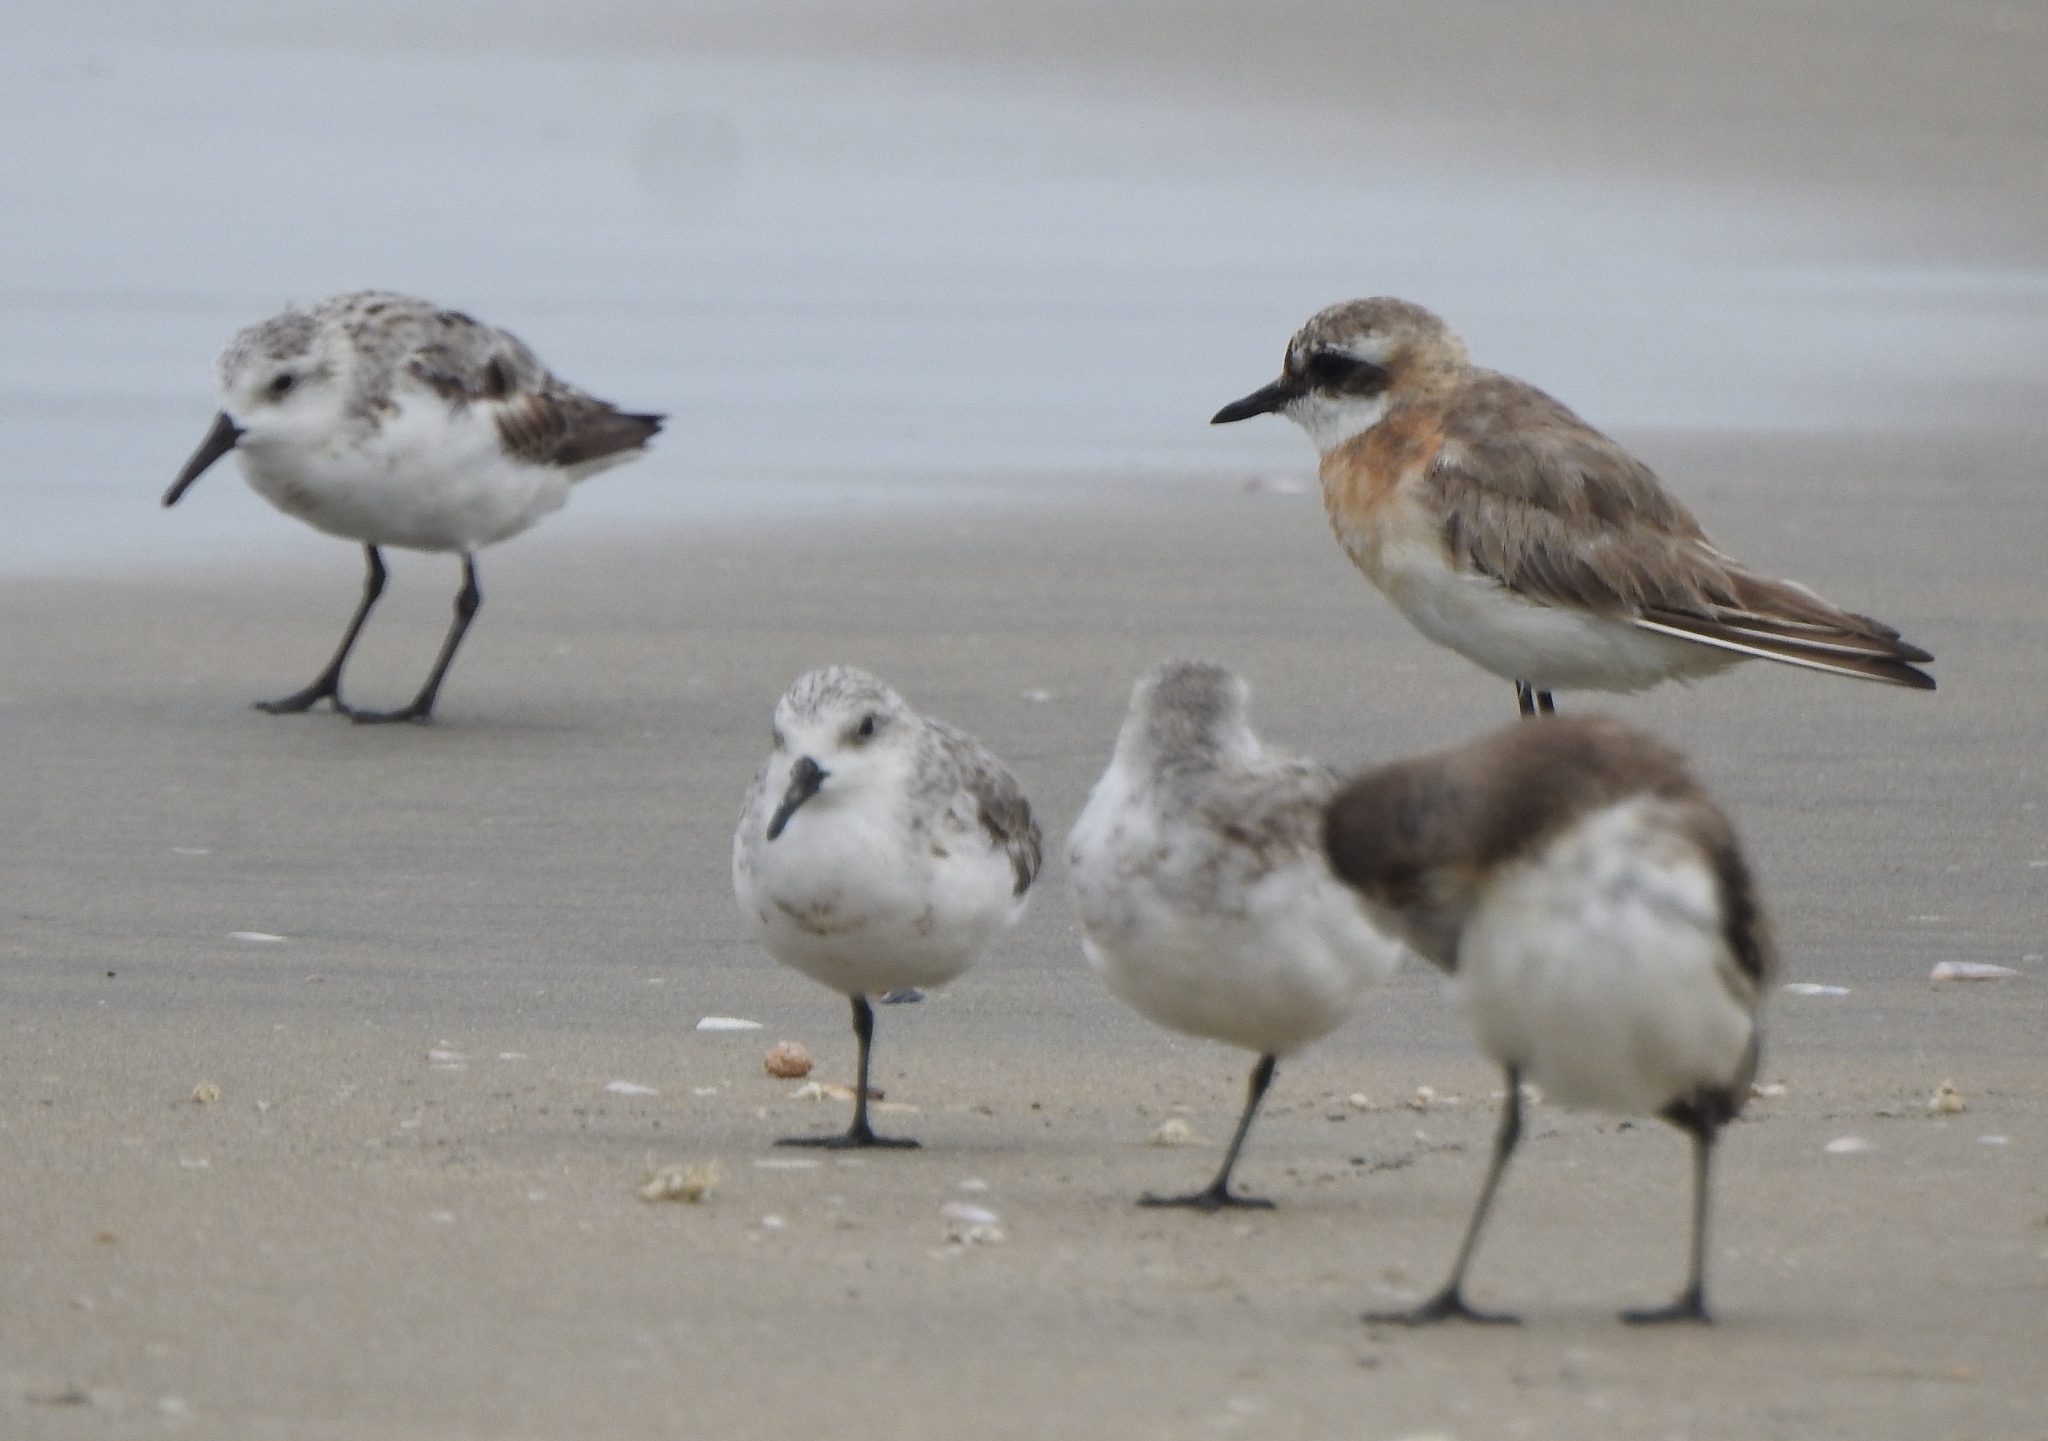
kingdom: Animalia
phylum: Chordata
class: Aves
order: Charadriiformes
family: Charadriidae
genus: Anarhynchus
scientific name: Anarhynchus
